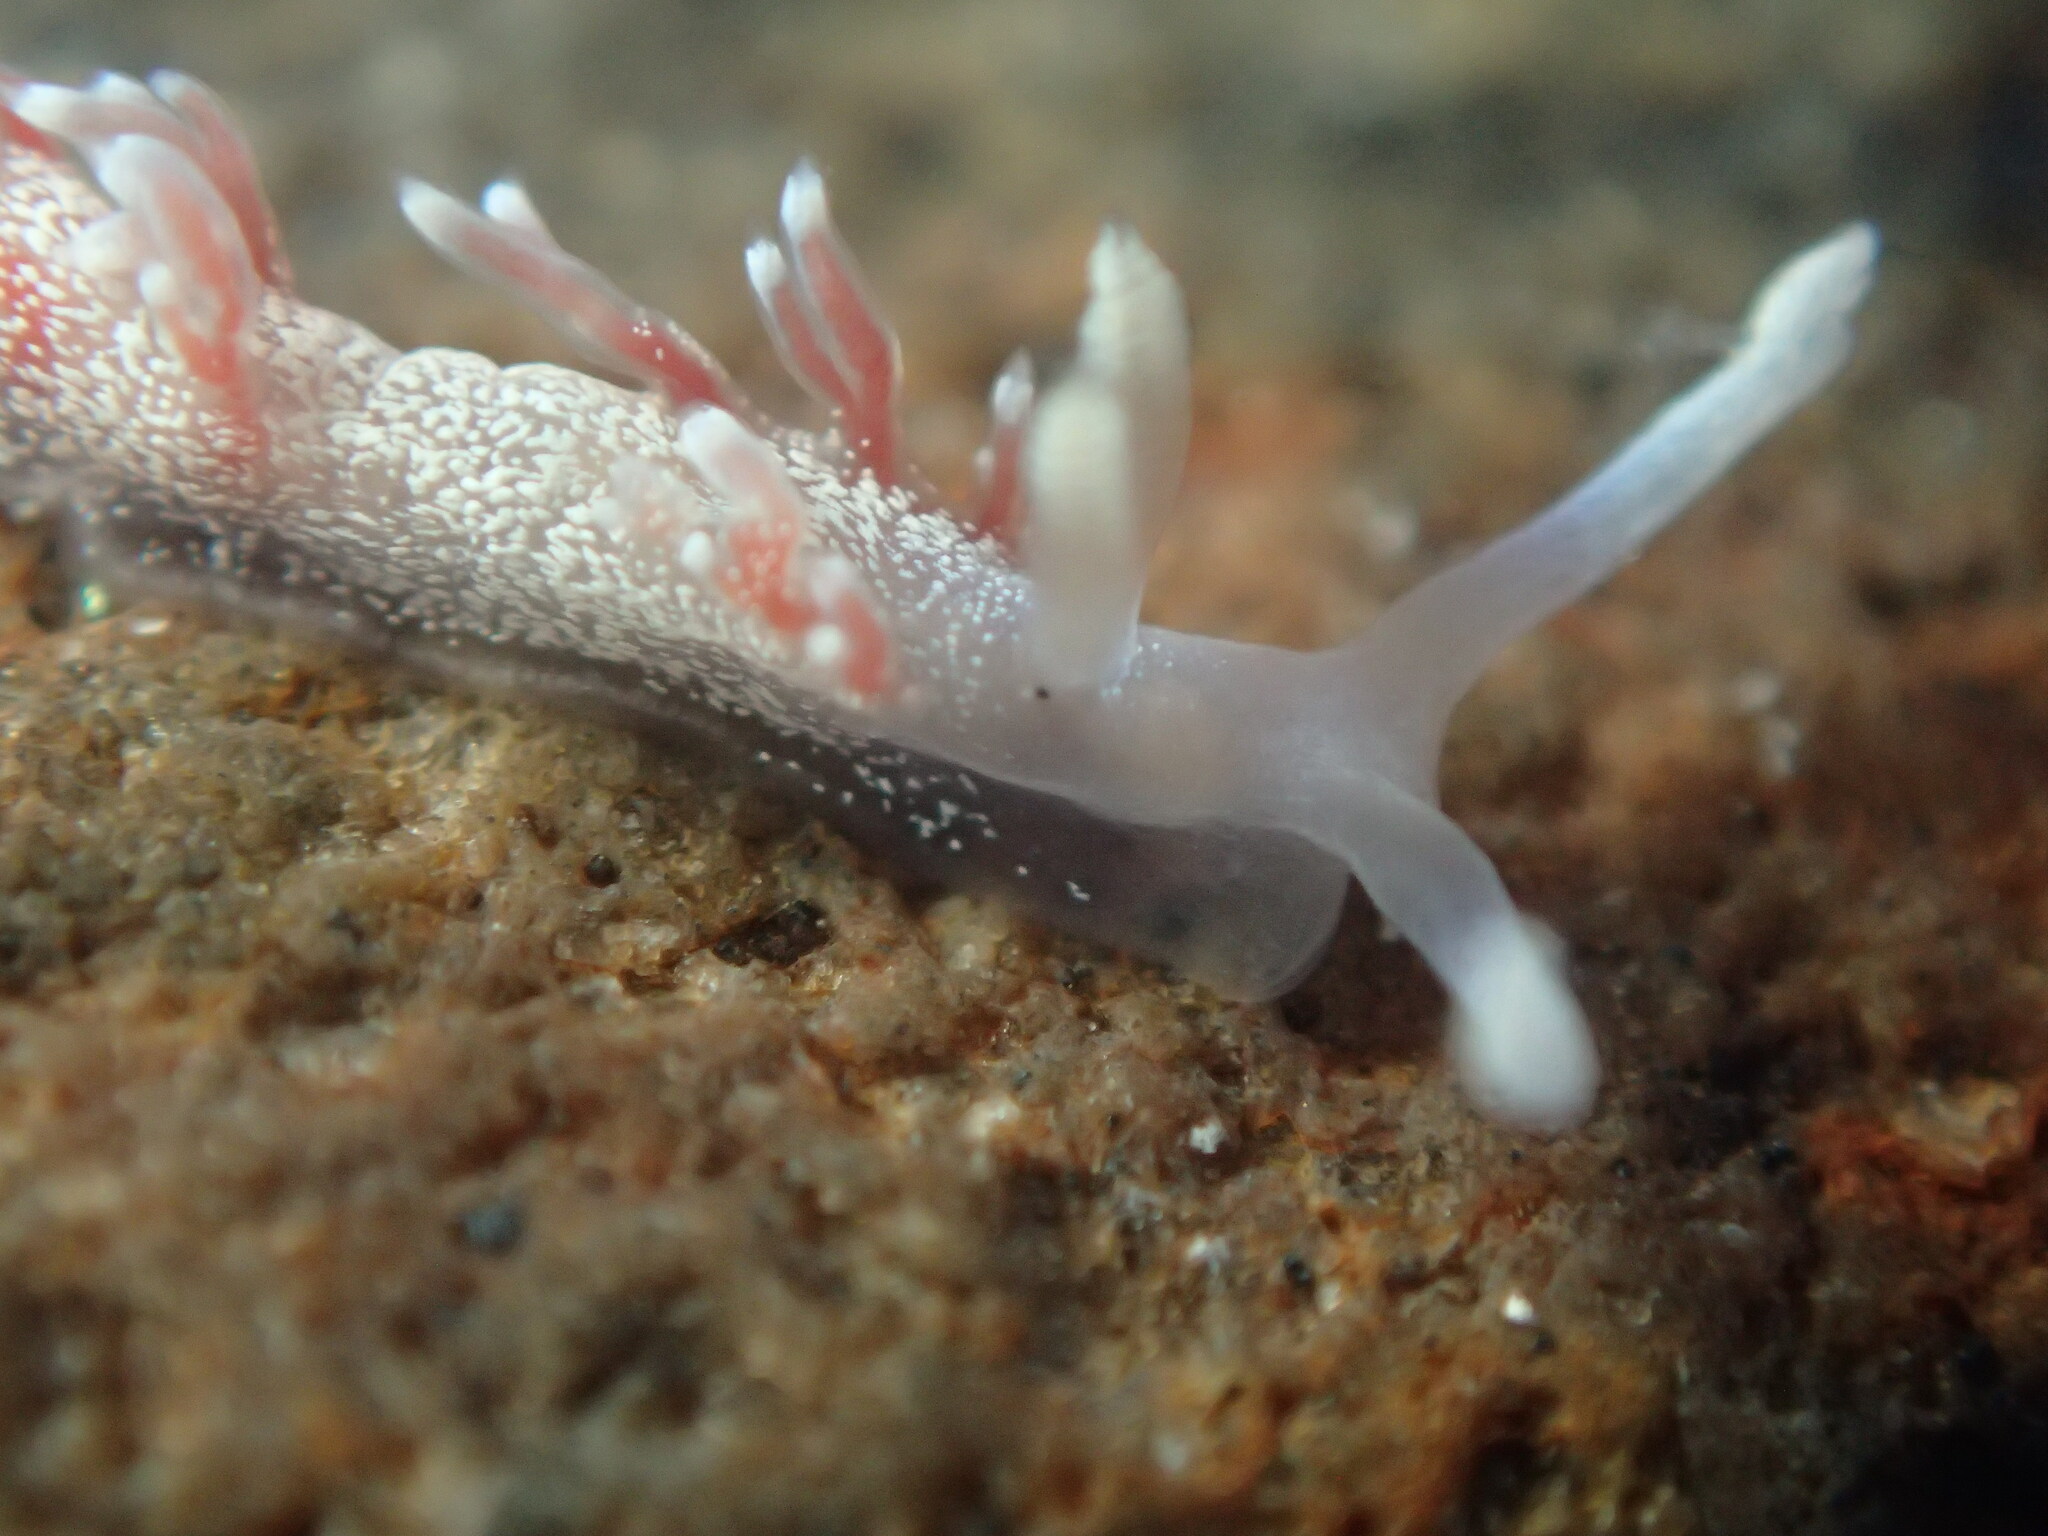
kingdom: Animalia
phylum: Mollusca
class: Gastropoda
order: Nudibranchia
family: Samlidae
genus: Samla
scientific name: Samla telja
